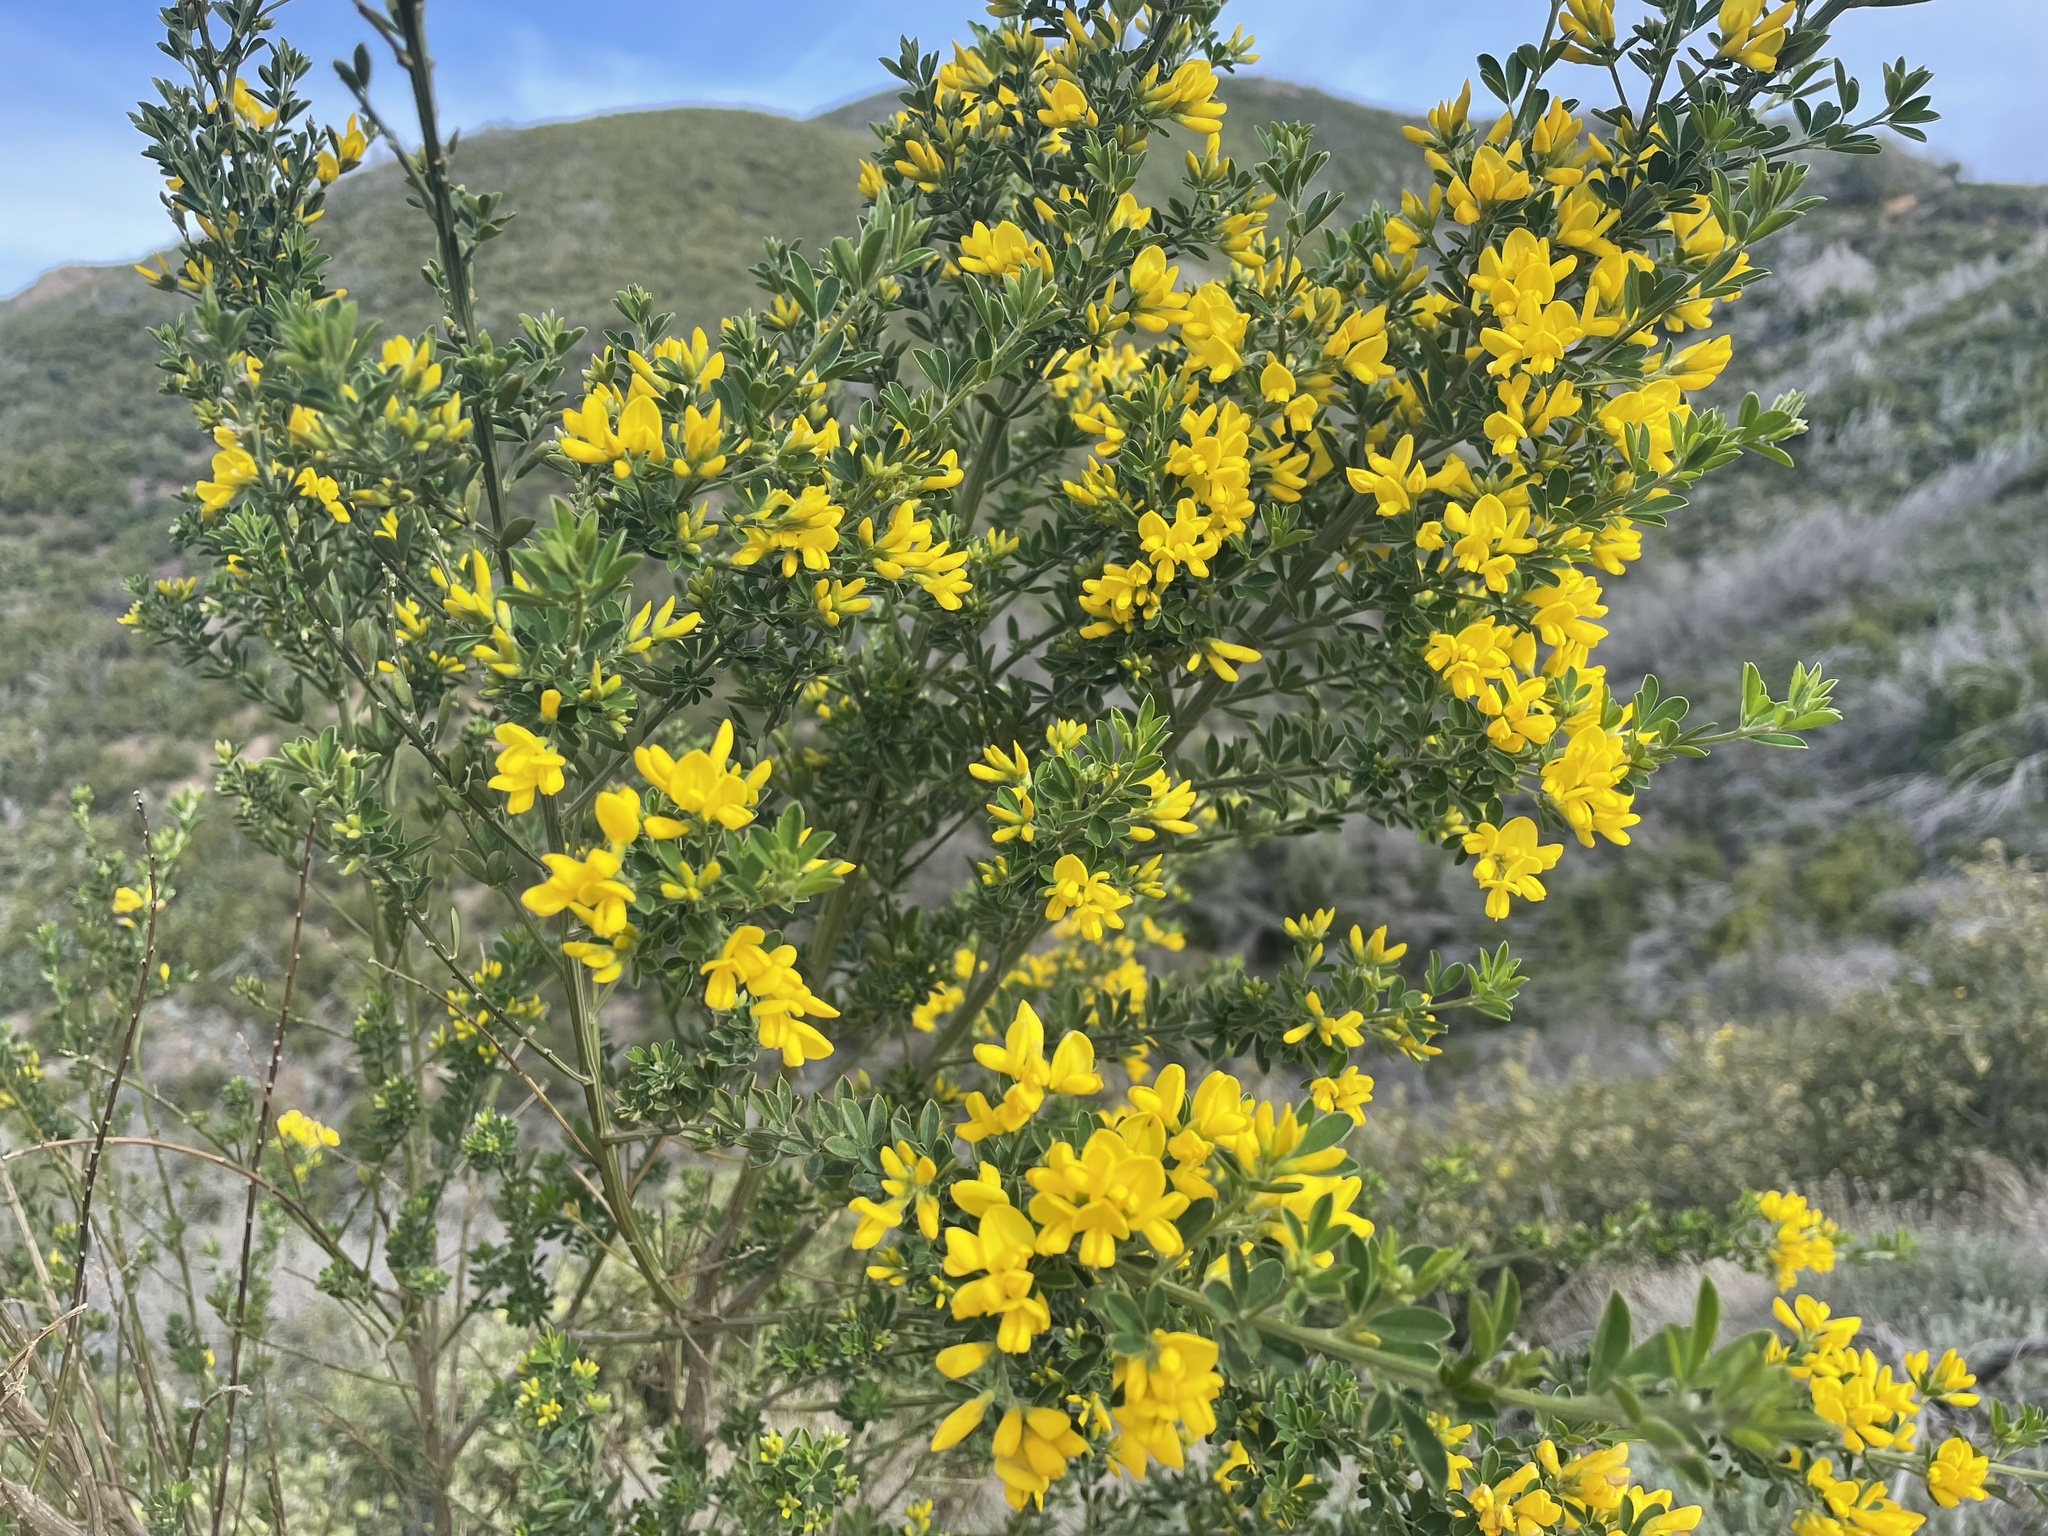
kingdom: Plantae
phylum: Tracheophyta
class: Magnoliopsida
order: Fabales
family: Fabaceae
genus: Genista
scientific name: Genista monspessulana
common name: Montpellier broom
